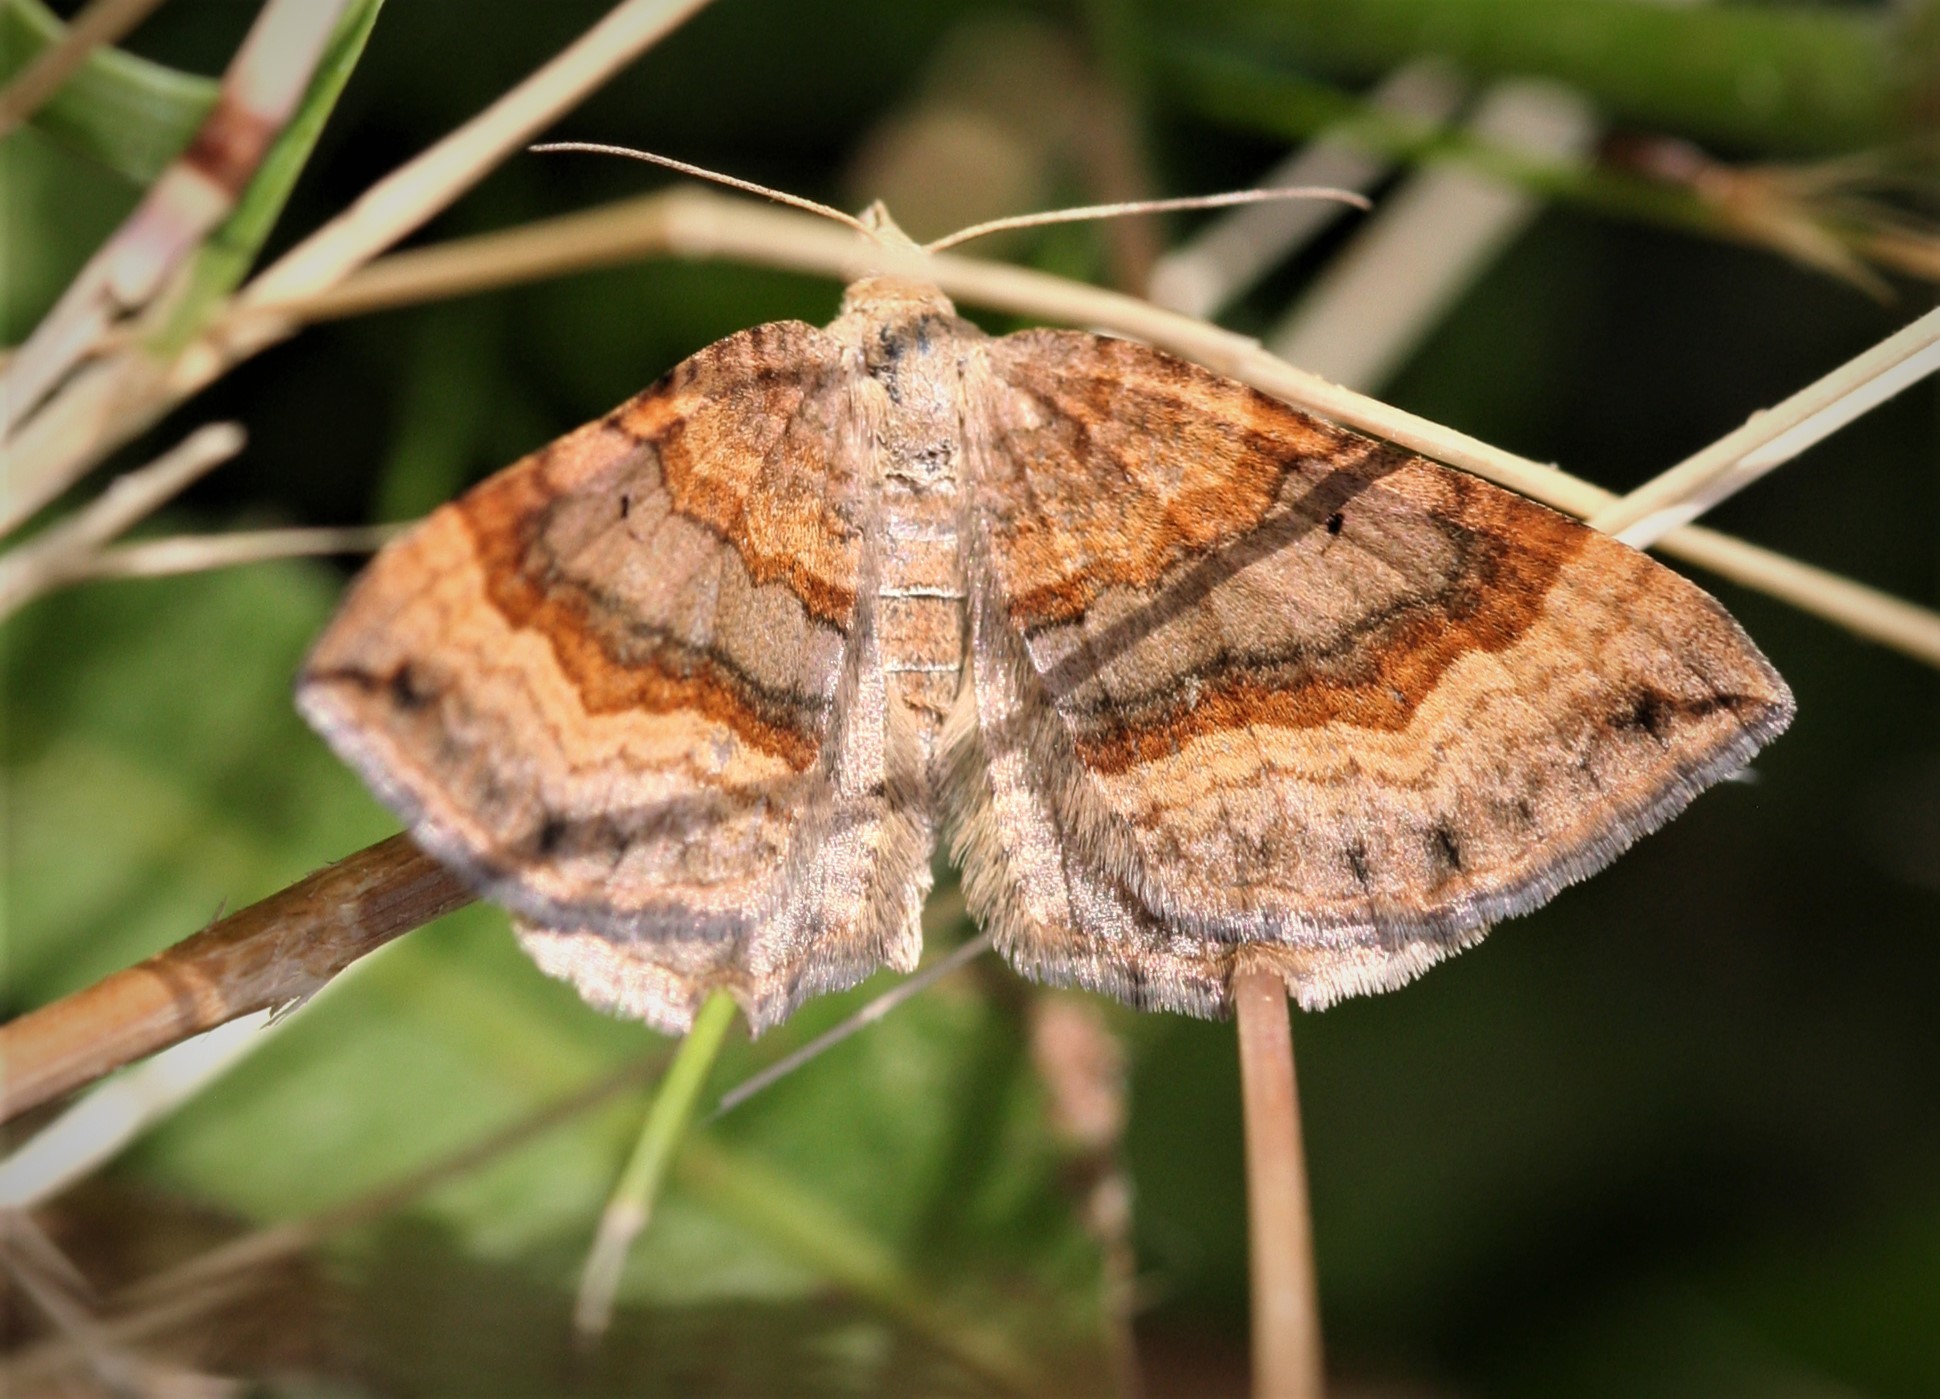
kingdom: Animalia
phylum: Arthropoda
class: Insecta
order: Lepidoptera
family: Geometridae
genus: Scotopteryx
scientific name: Scotopteryx chenopodiata
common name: Shaded broad-bar
